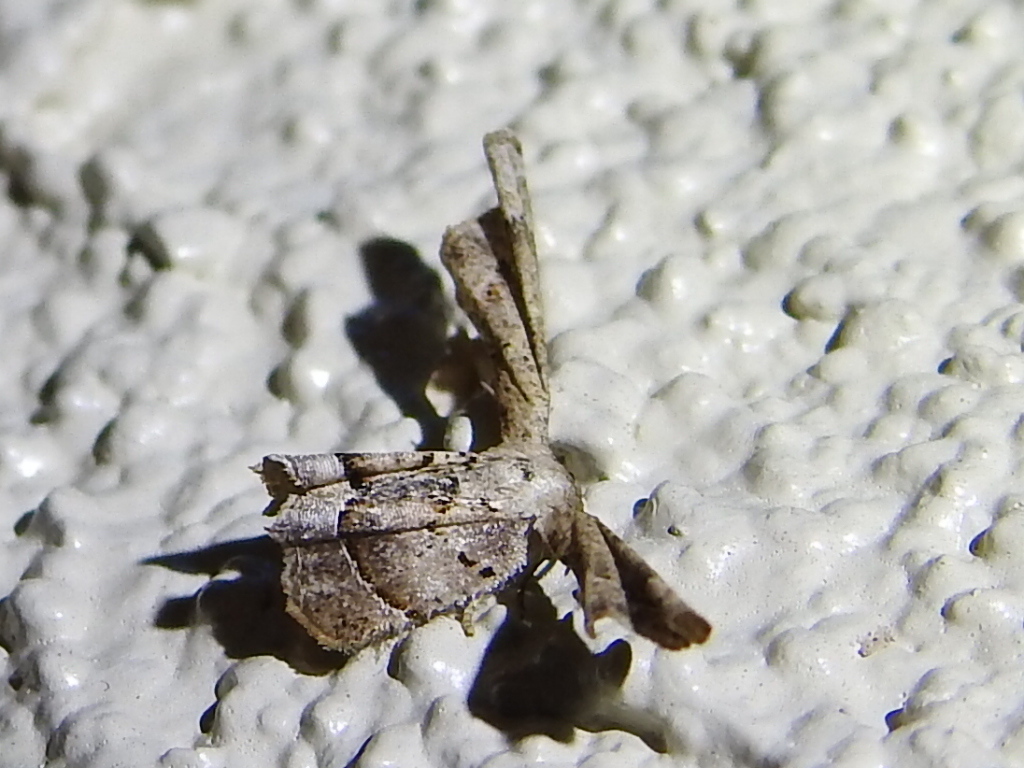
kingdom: Animalia
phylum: Arthropoda
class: Insecta
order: Lepidoptera
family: Uraniidae
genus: Antiplecta
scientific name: Antiplecta triangularis
